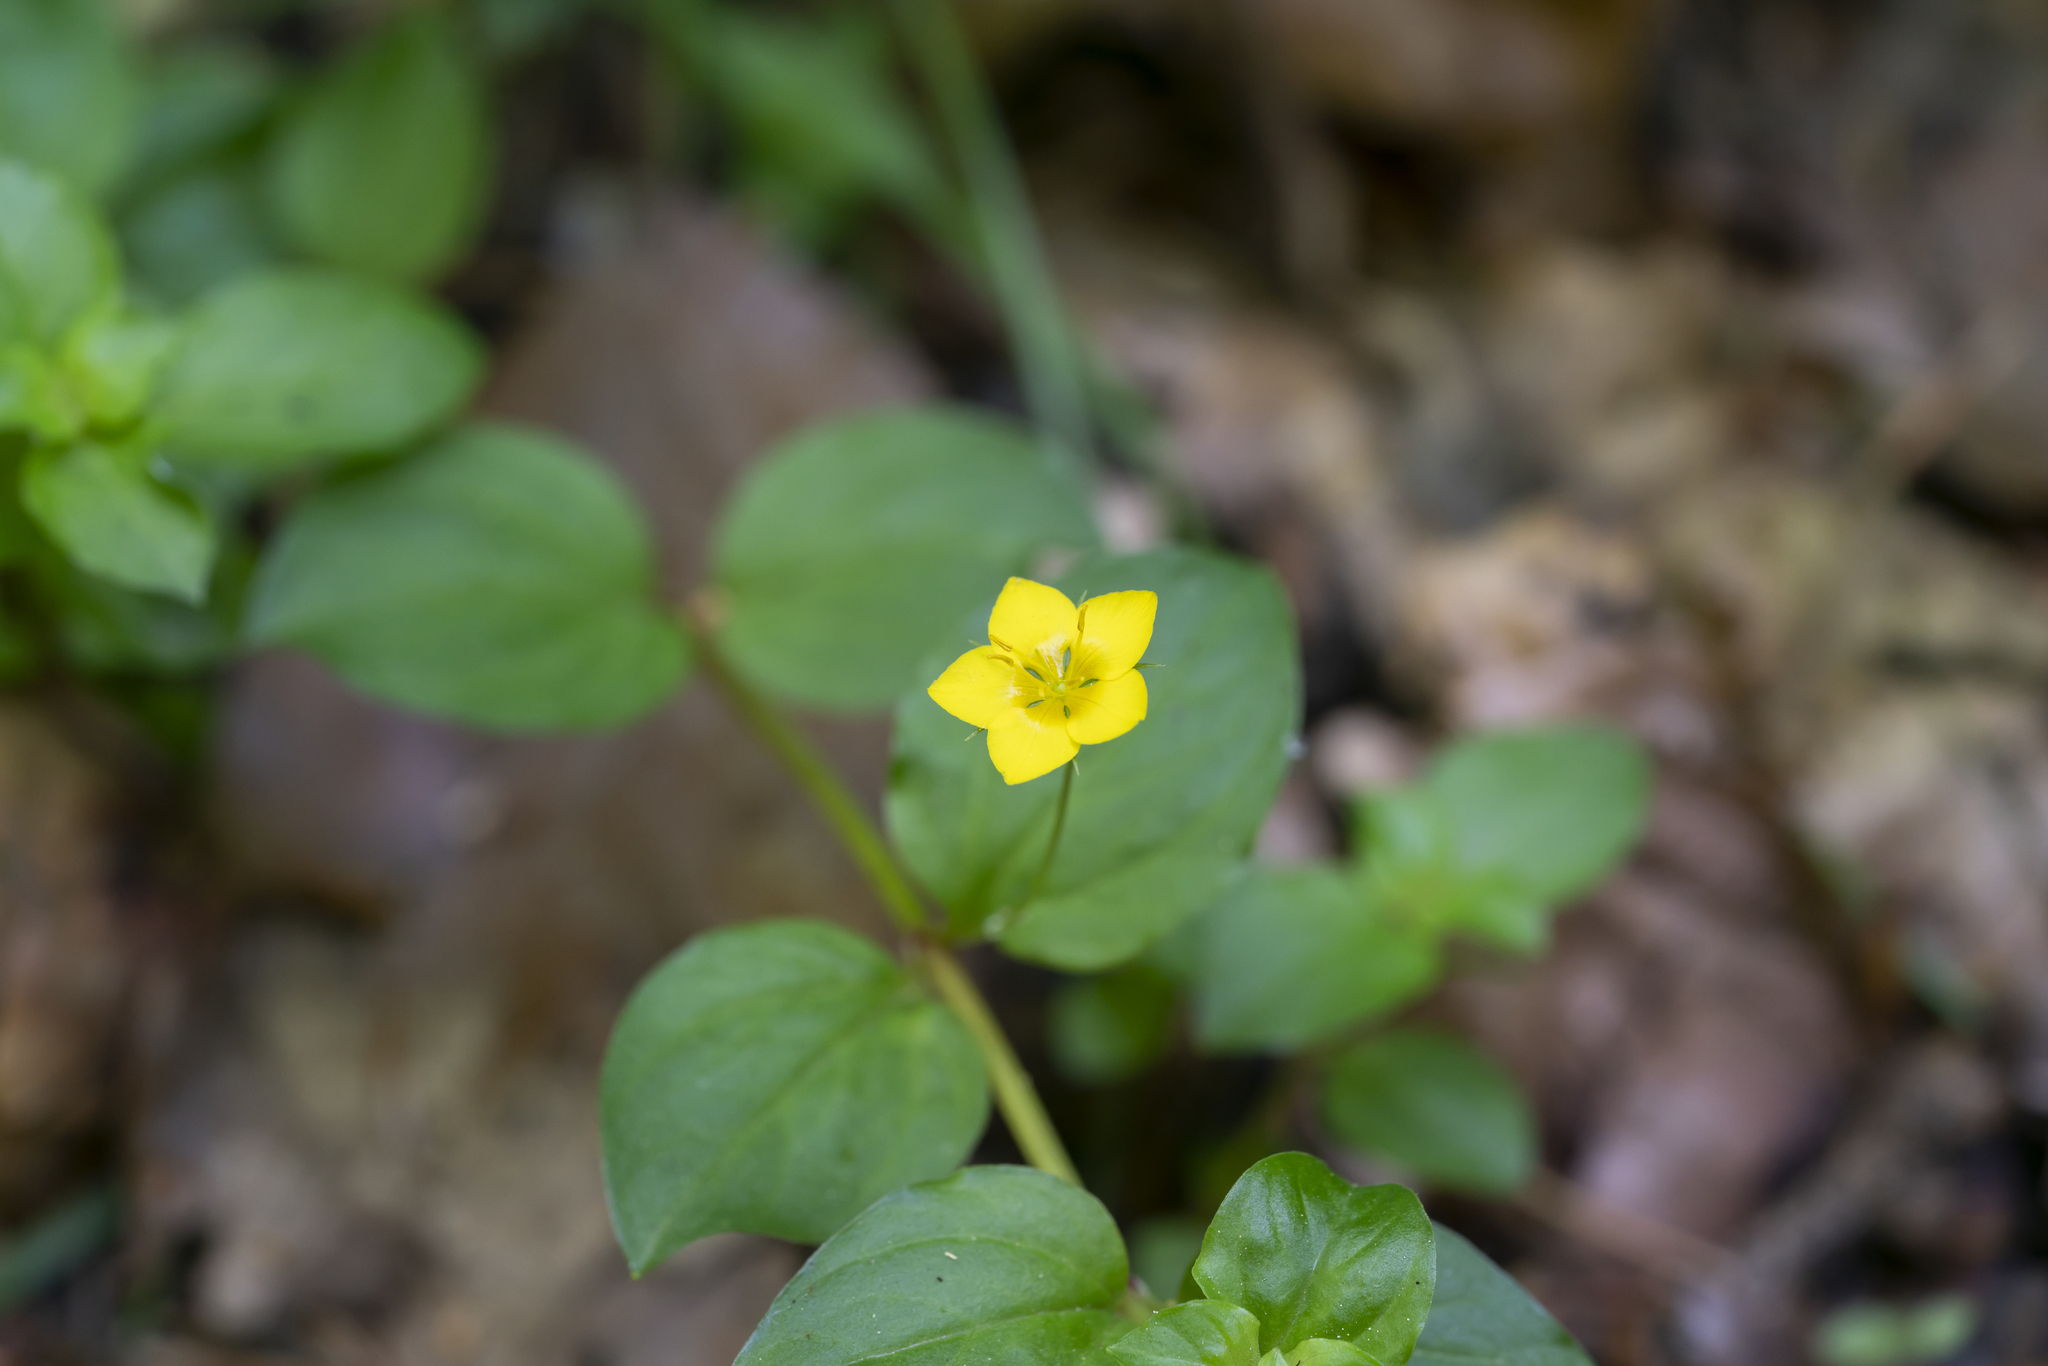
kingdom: Plantae
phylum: Tracheophyta
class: Magnoliopsida
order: Ericales
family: Primulaceae
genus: Lysimachia
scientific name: Lysimachia nemorum
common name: Yellow pimpernel
